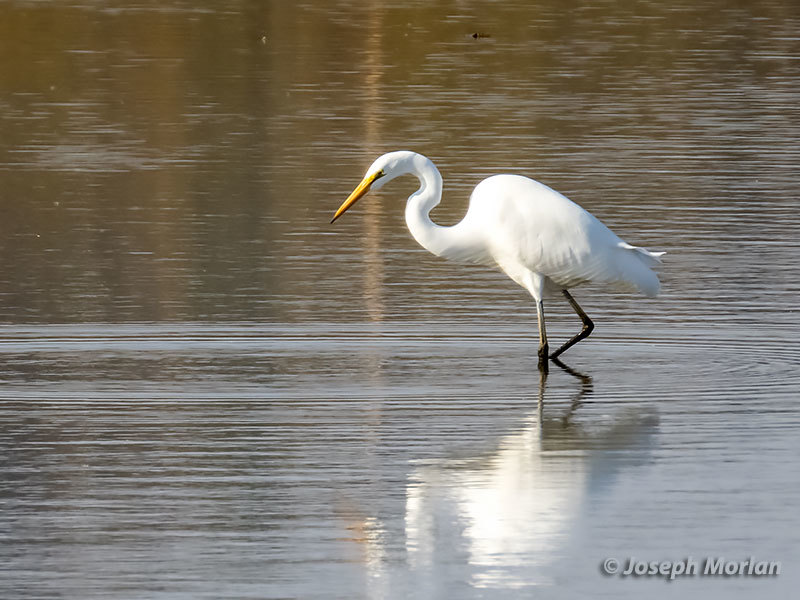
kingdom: Animalia
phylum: Chordata
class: Aves
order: Pelecaniformes
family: Ardeidae
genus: Ardea
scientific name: Ardea alba
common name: Great egret
